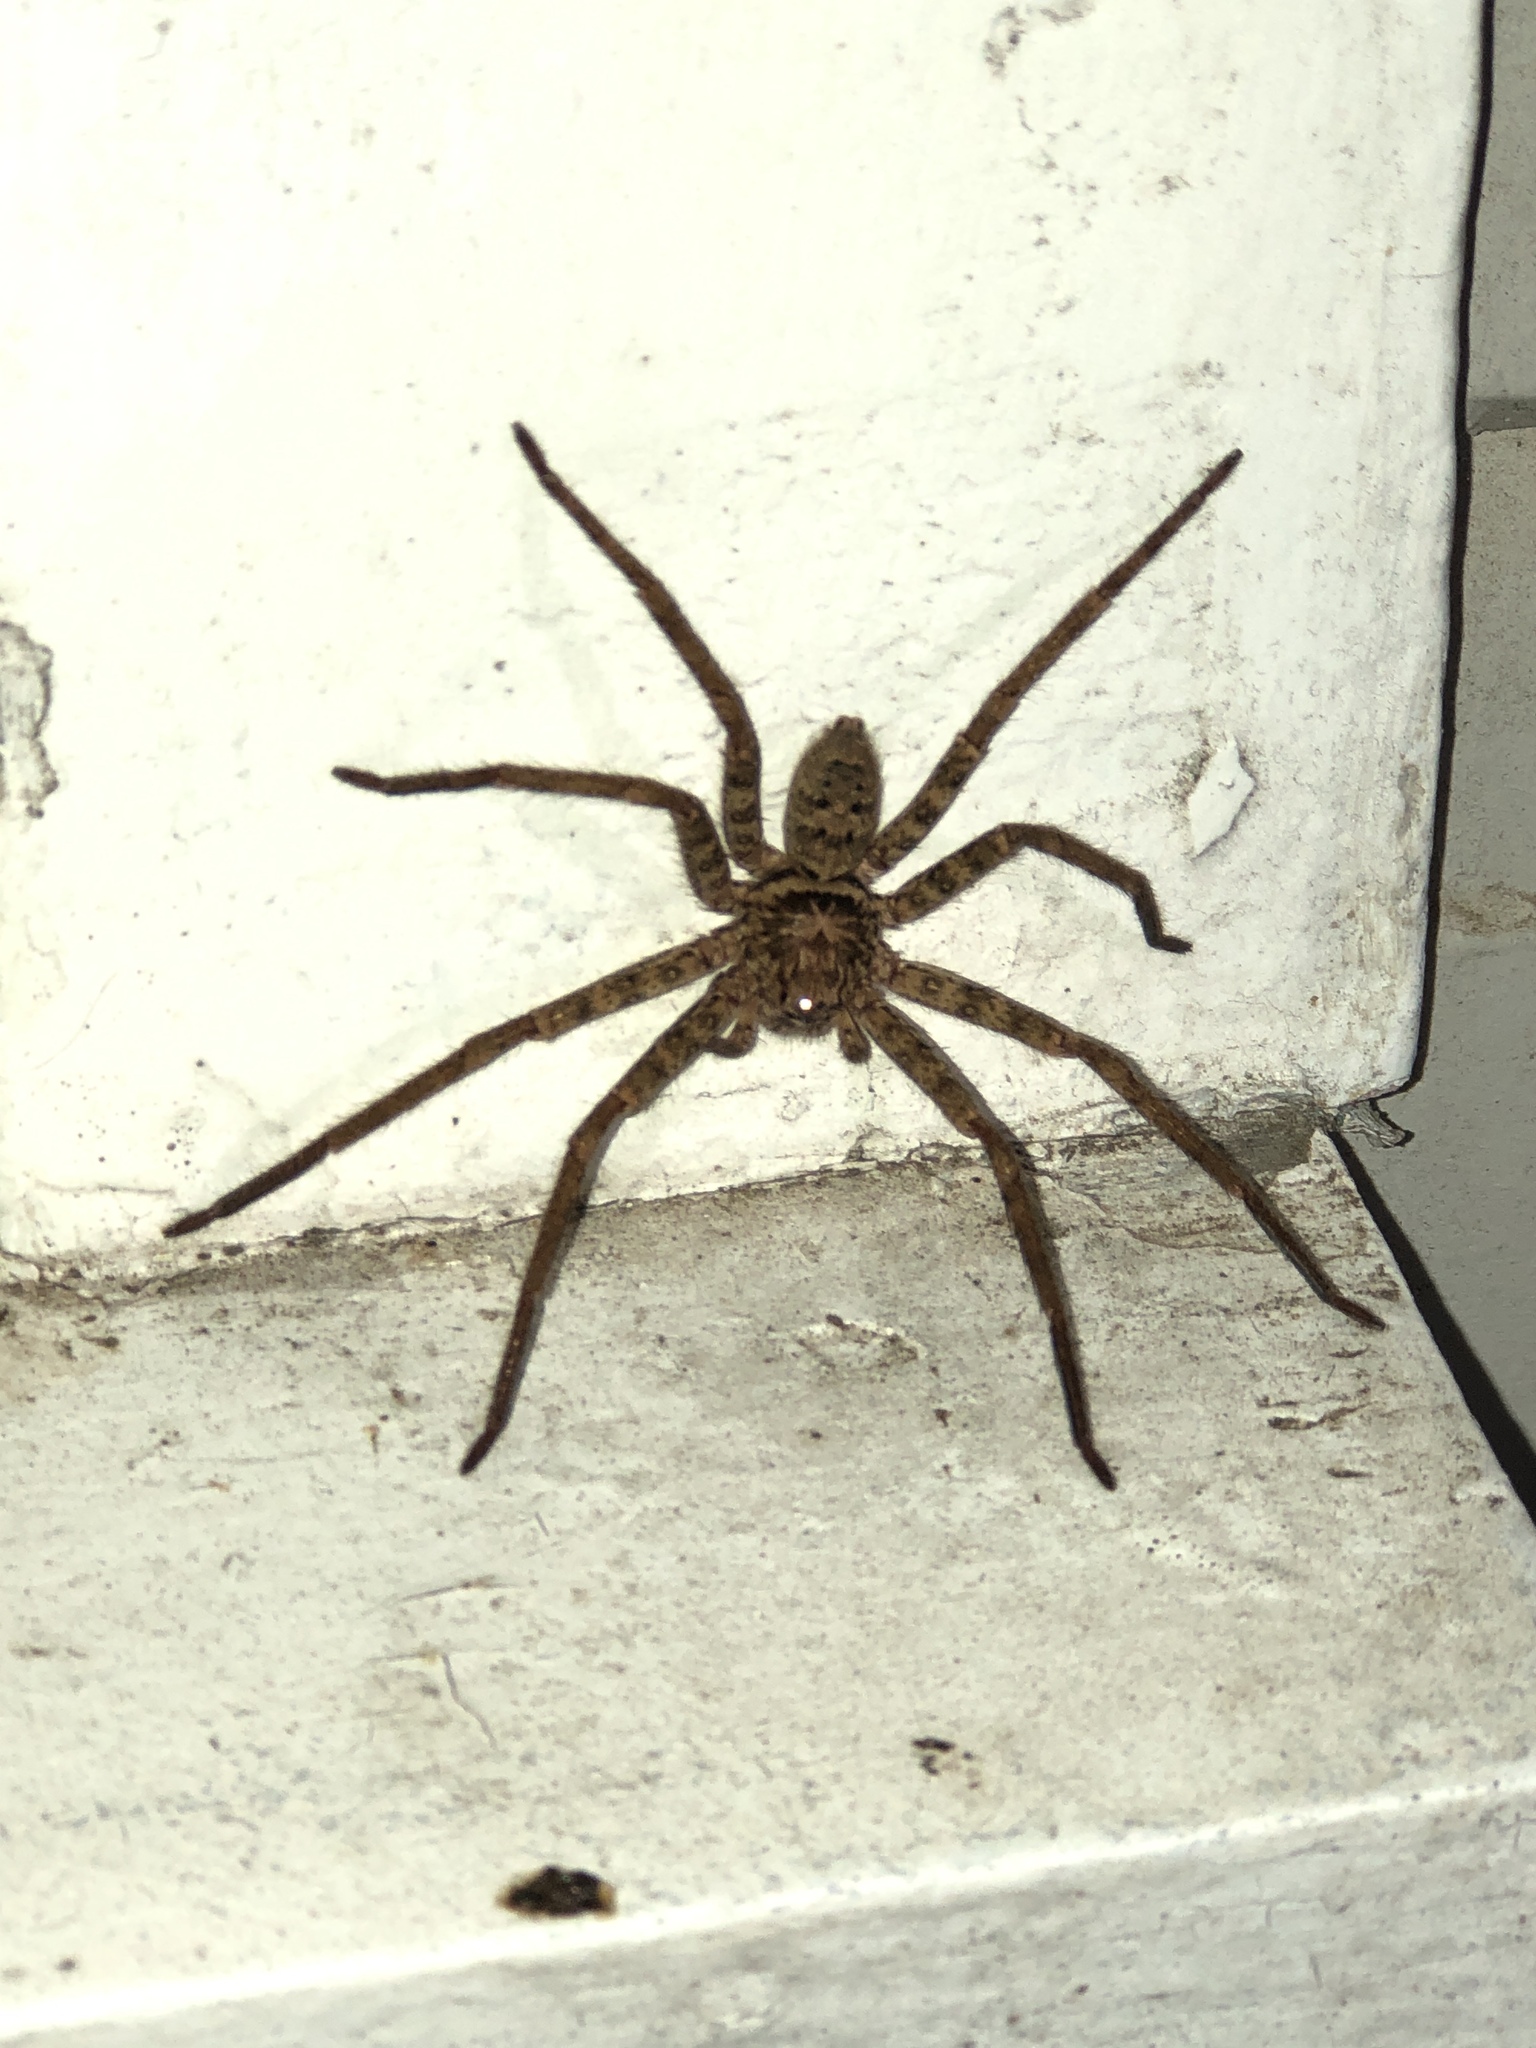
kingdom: Animalia
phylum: Arthropoda
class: Arachnida
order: Araneae
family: Sparassidae
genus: Heteropoda
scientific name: Heteropoda jugulans
